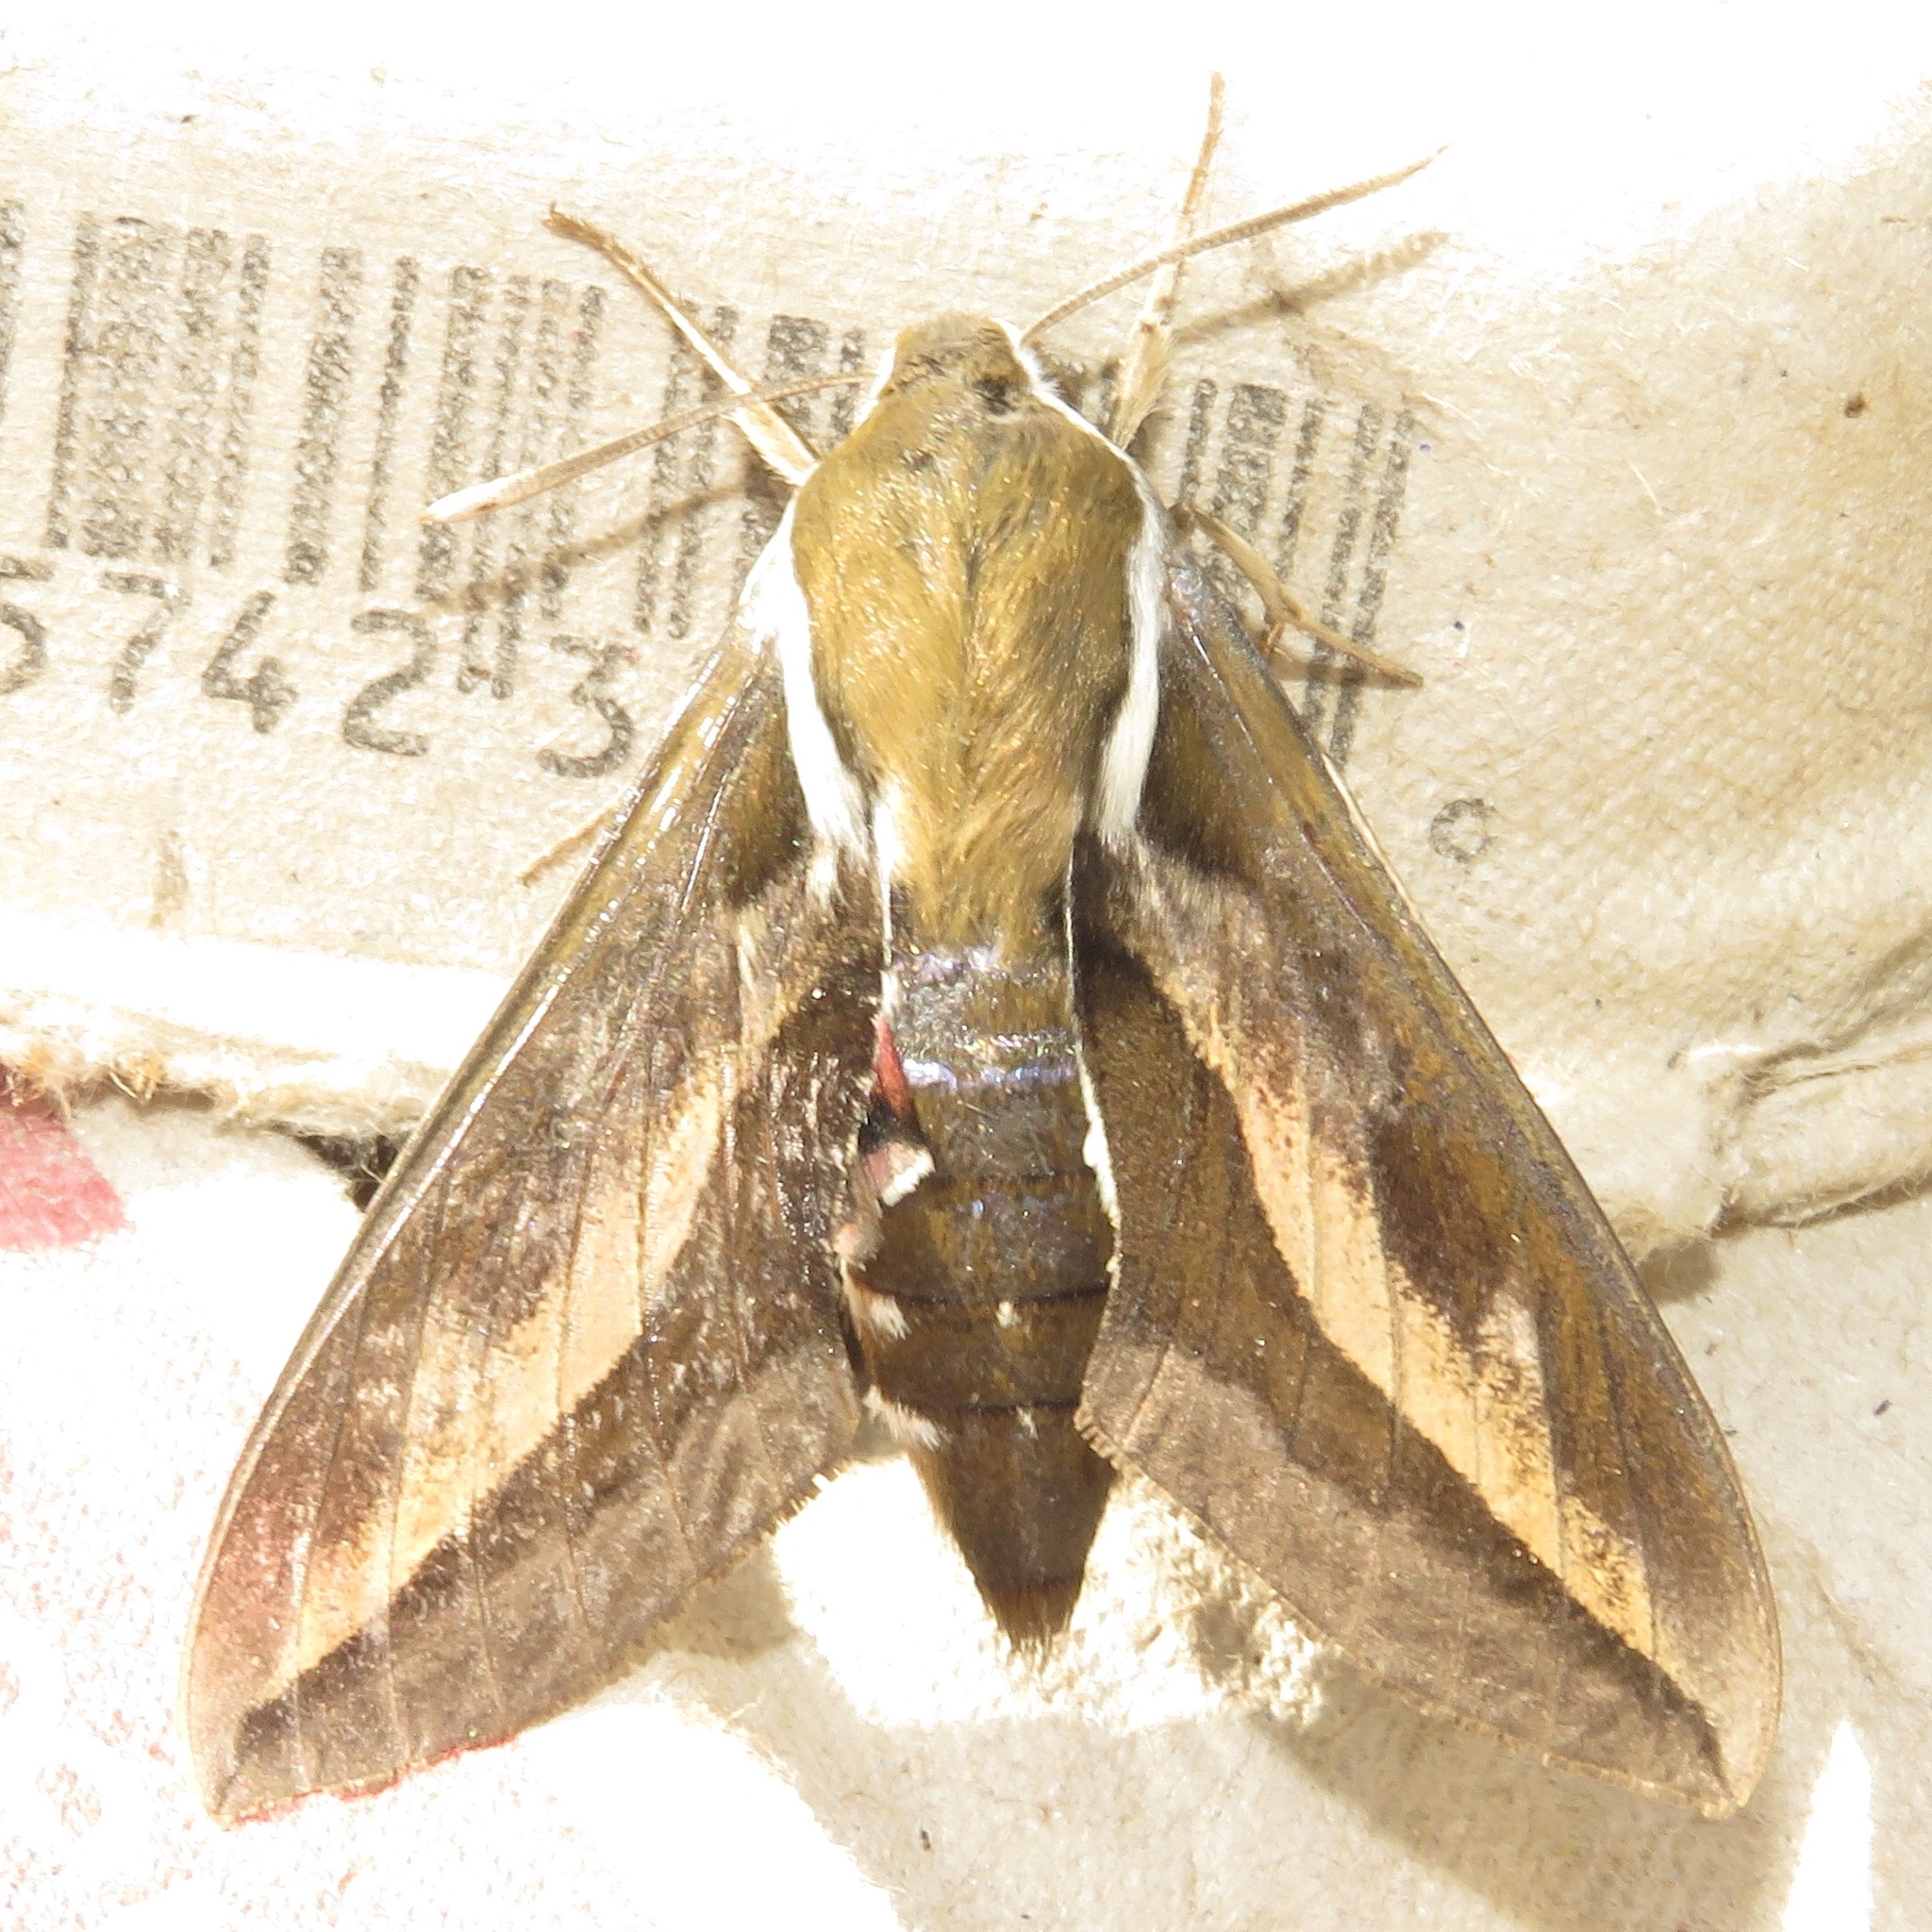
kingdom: Animalia
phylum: Arthropoda
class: Insecta
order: Lepidoptera
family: Sphingidae
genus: Hyles
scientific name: Hyles gallii
